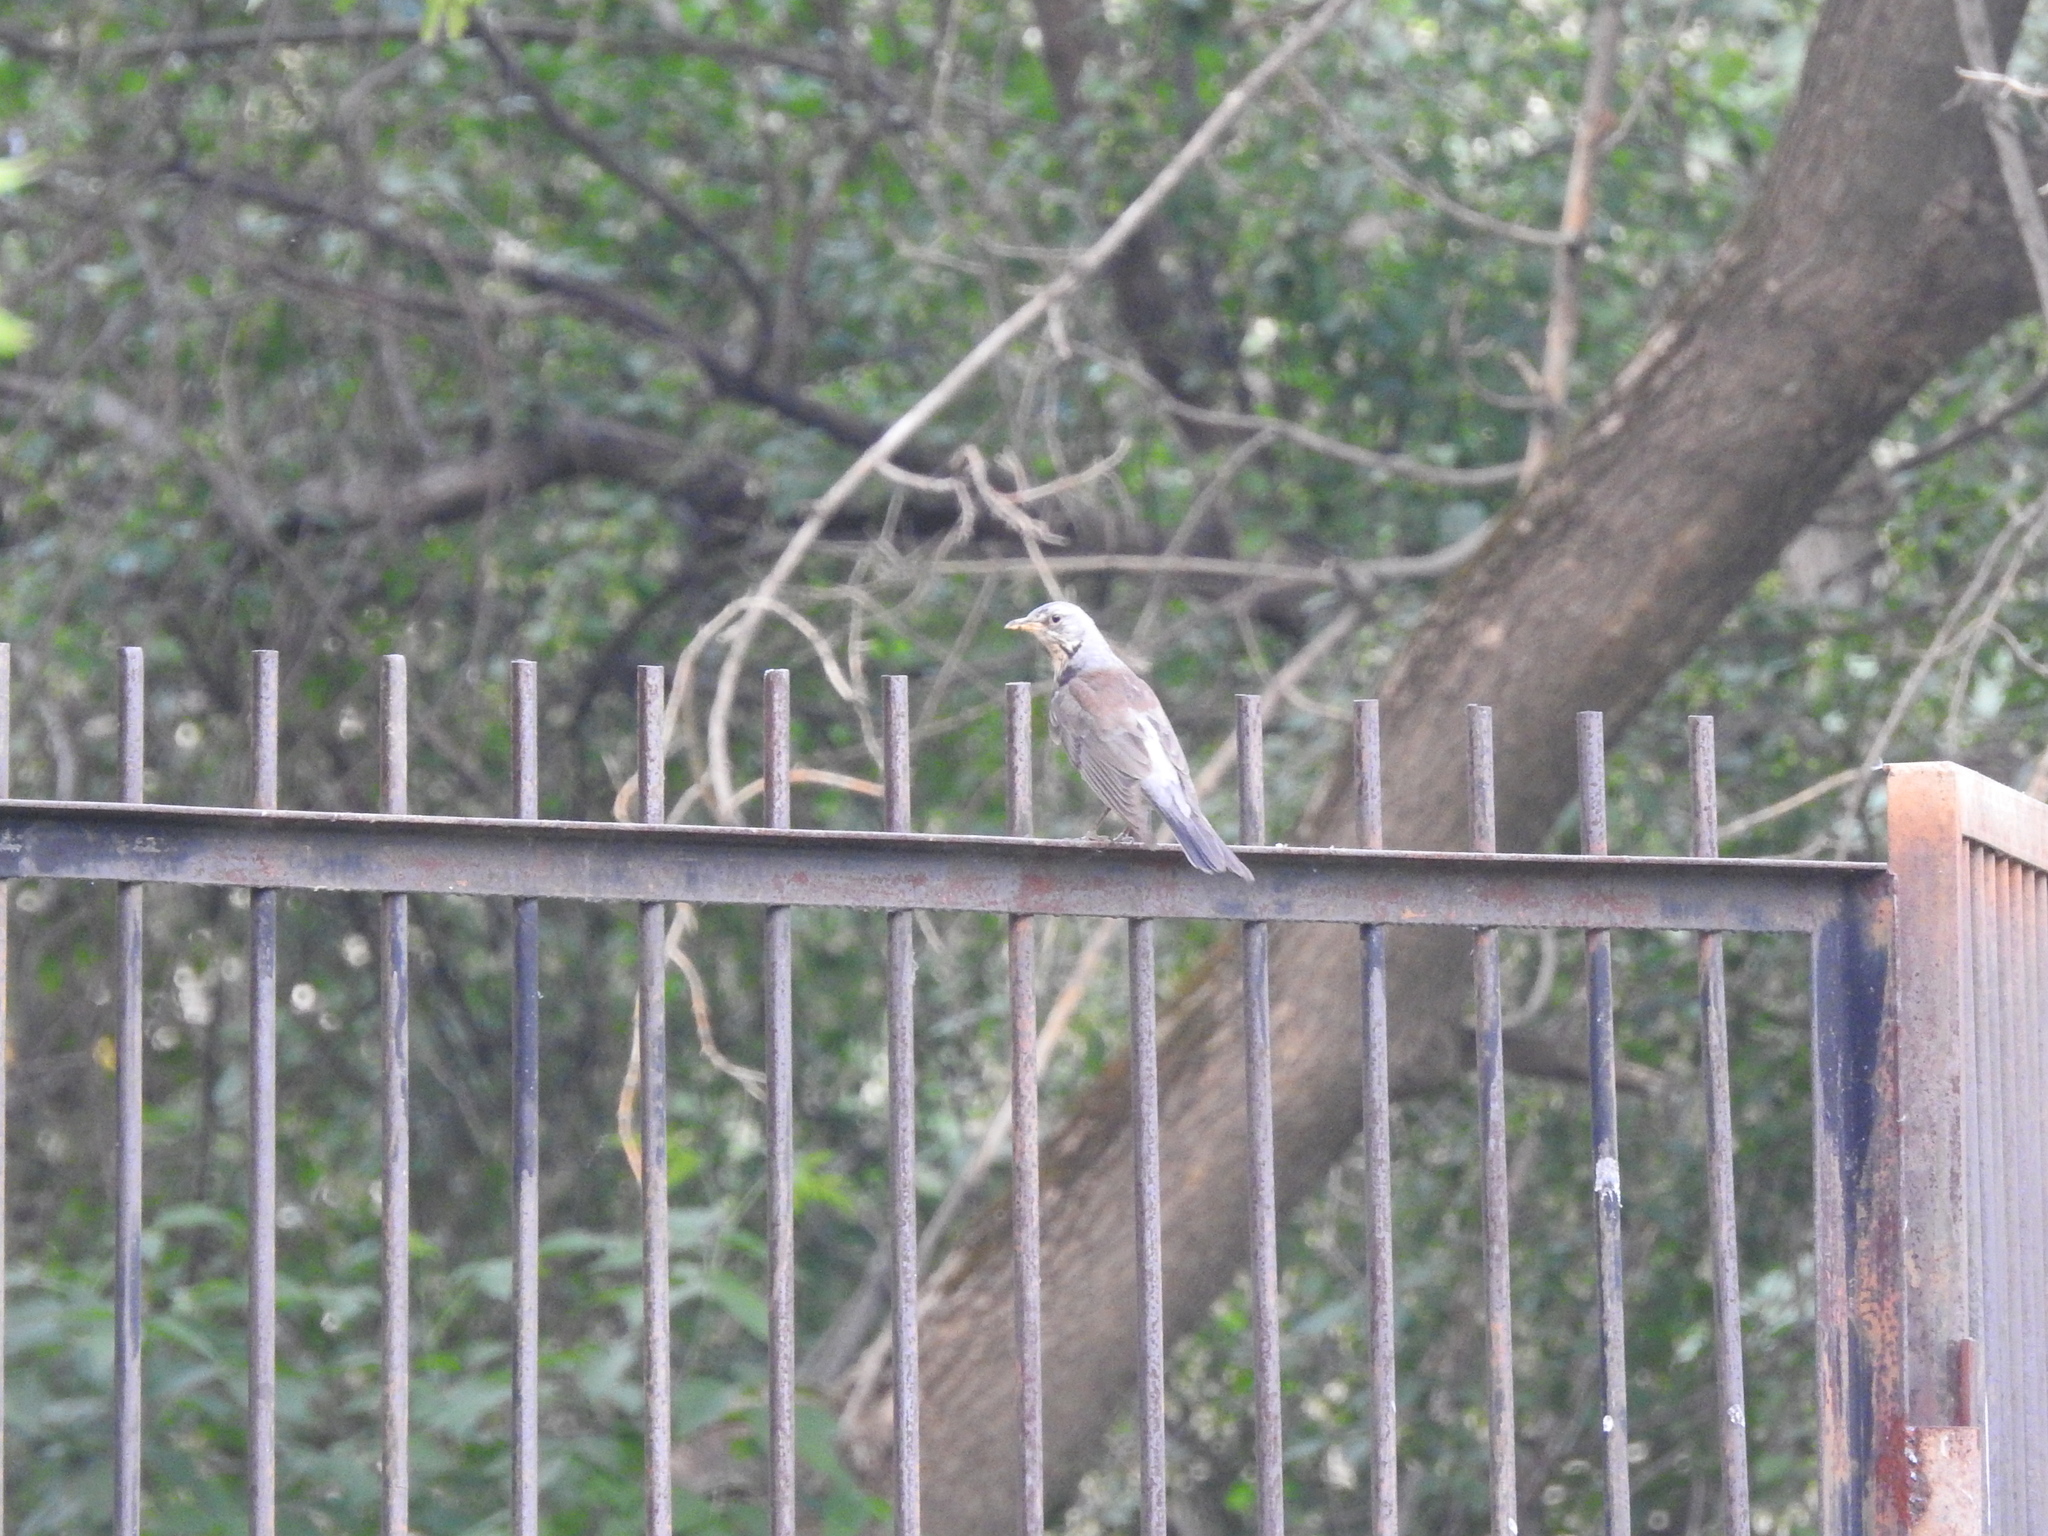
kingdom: Animalia
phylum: Chordata
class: Aves
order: Passeriformes
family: Turdidae
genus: Turdus
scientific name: Turdus pilaris
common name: Fieldfare
